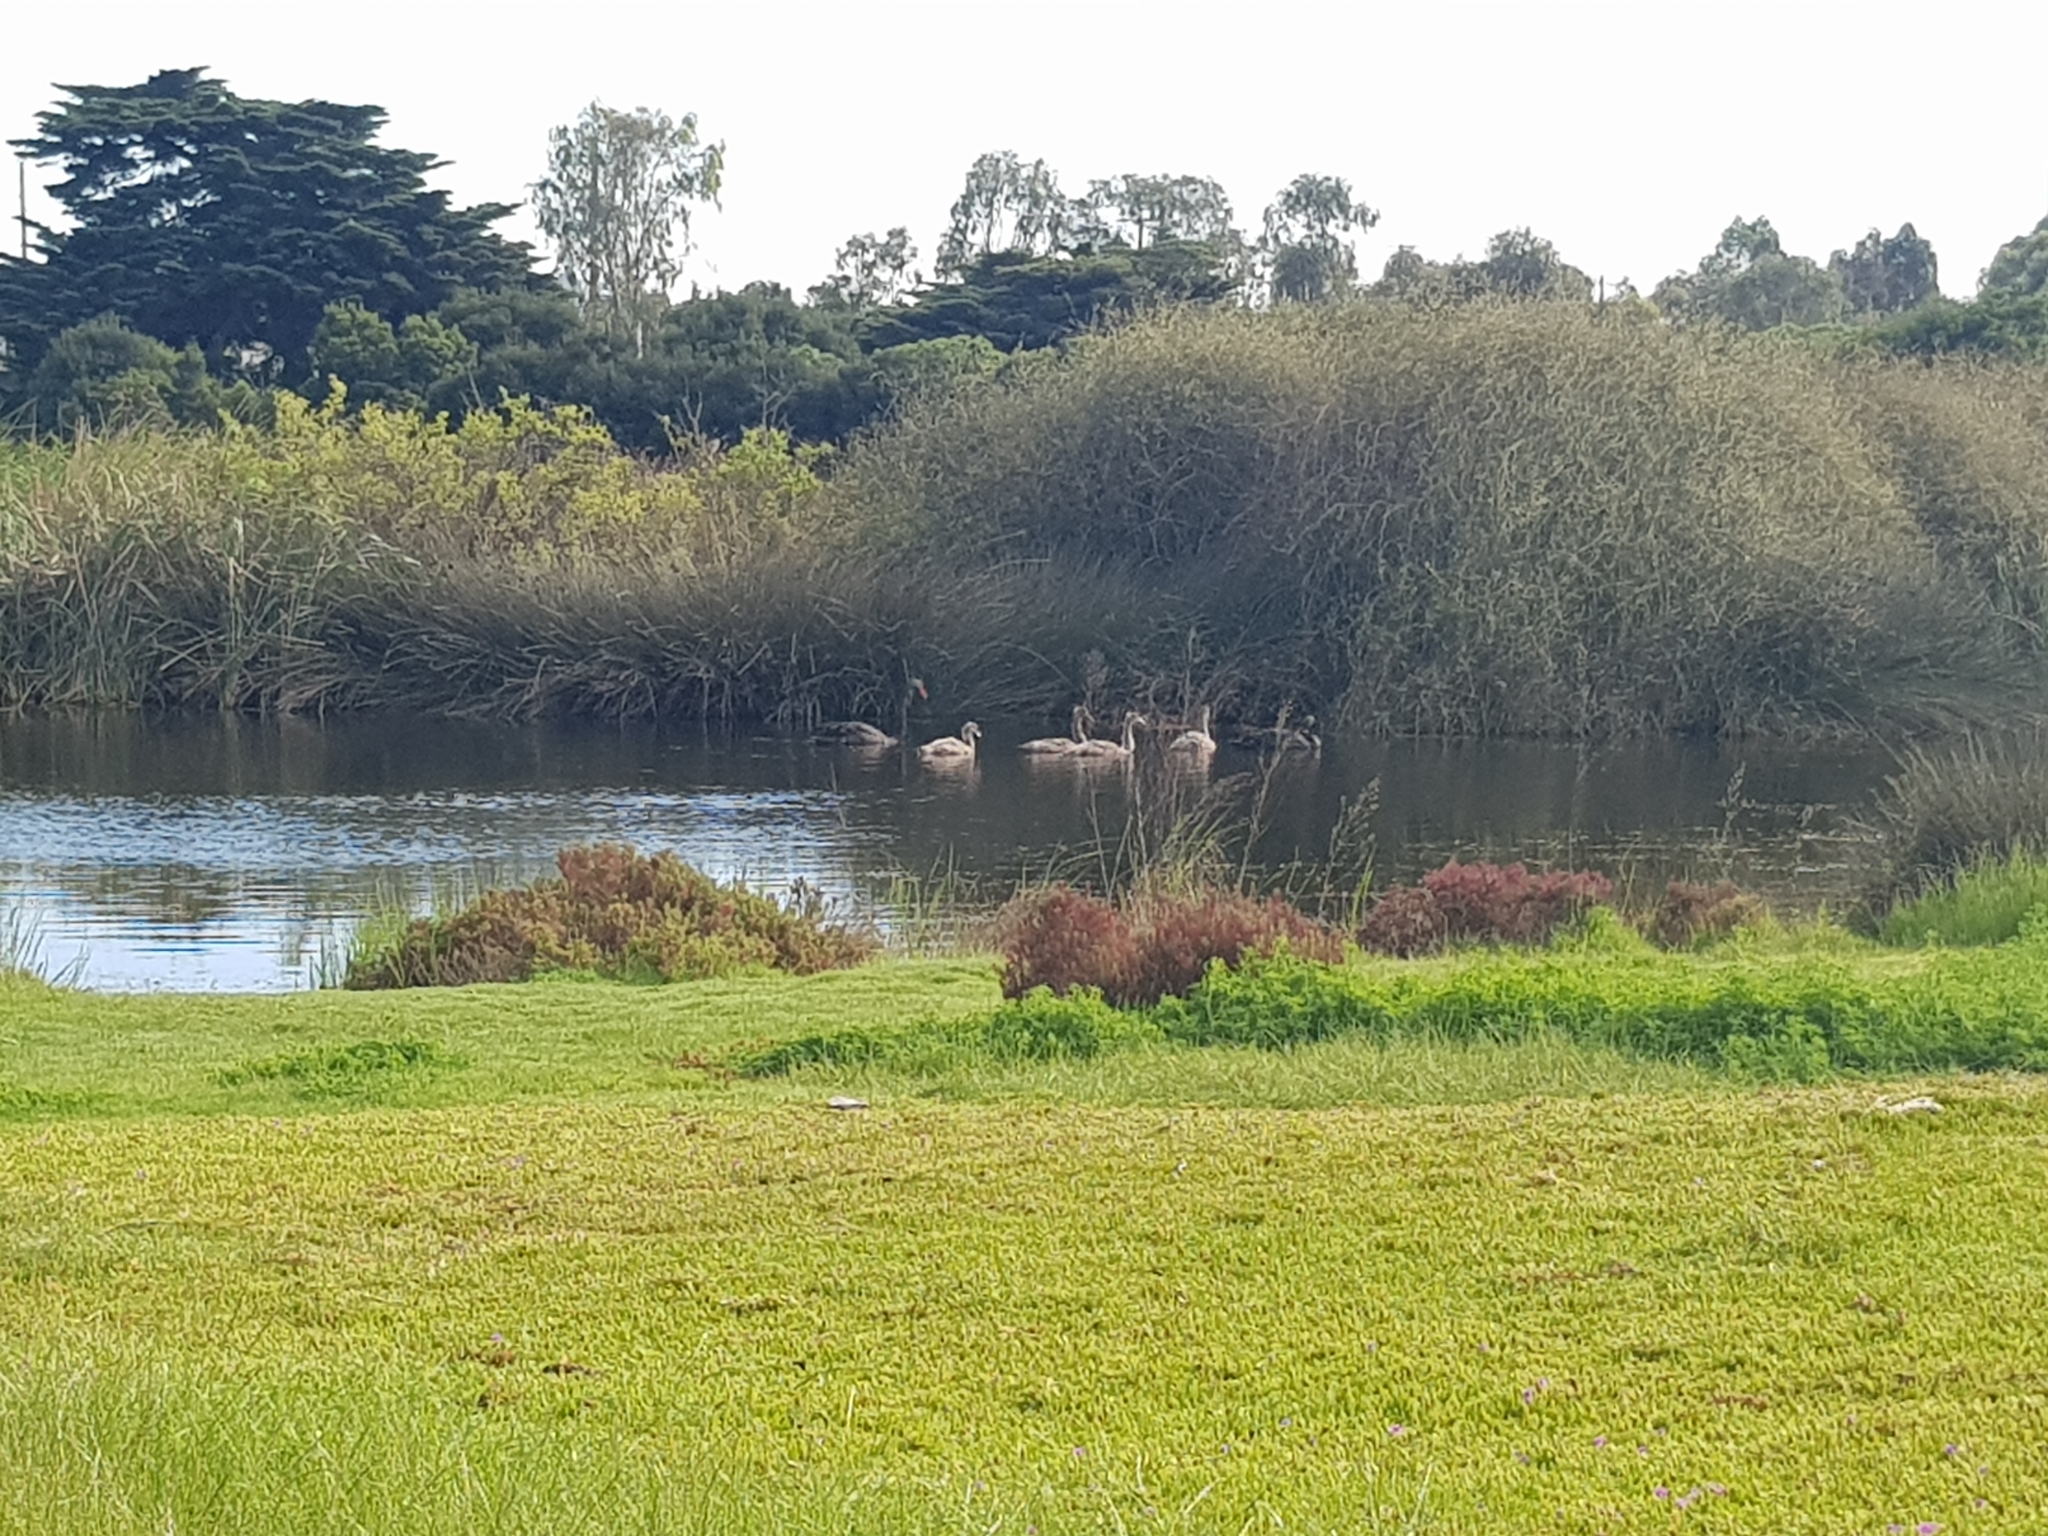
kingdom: Animalia
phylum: Chordata
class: Aves
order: Anseriformes
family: Anatidae
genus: Cygnus
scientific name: Cygnus atratus
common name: Black swan
